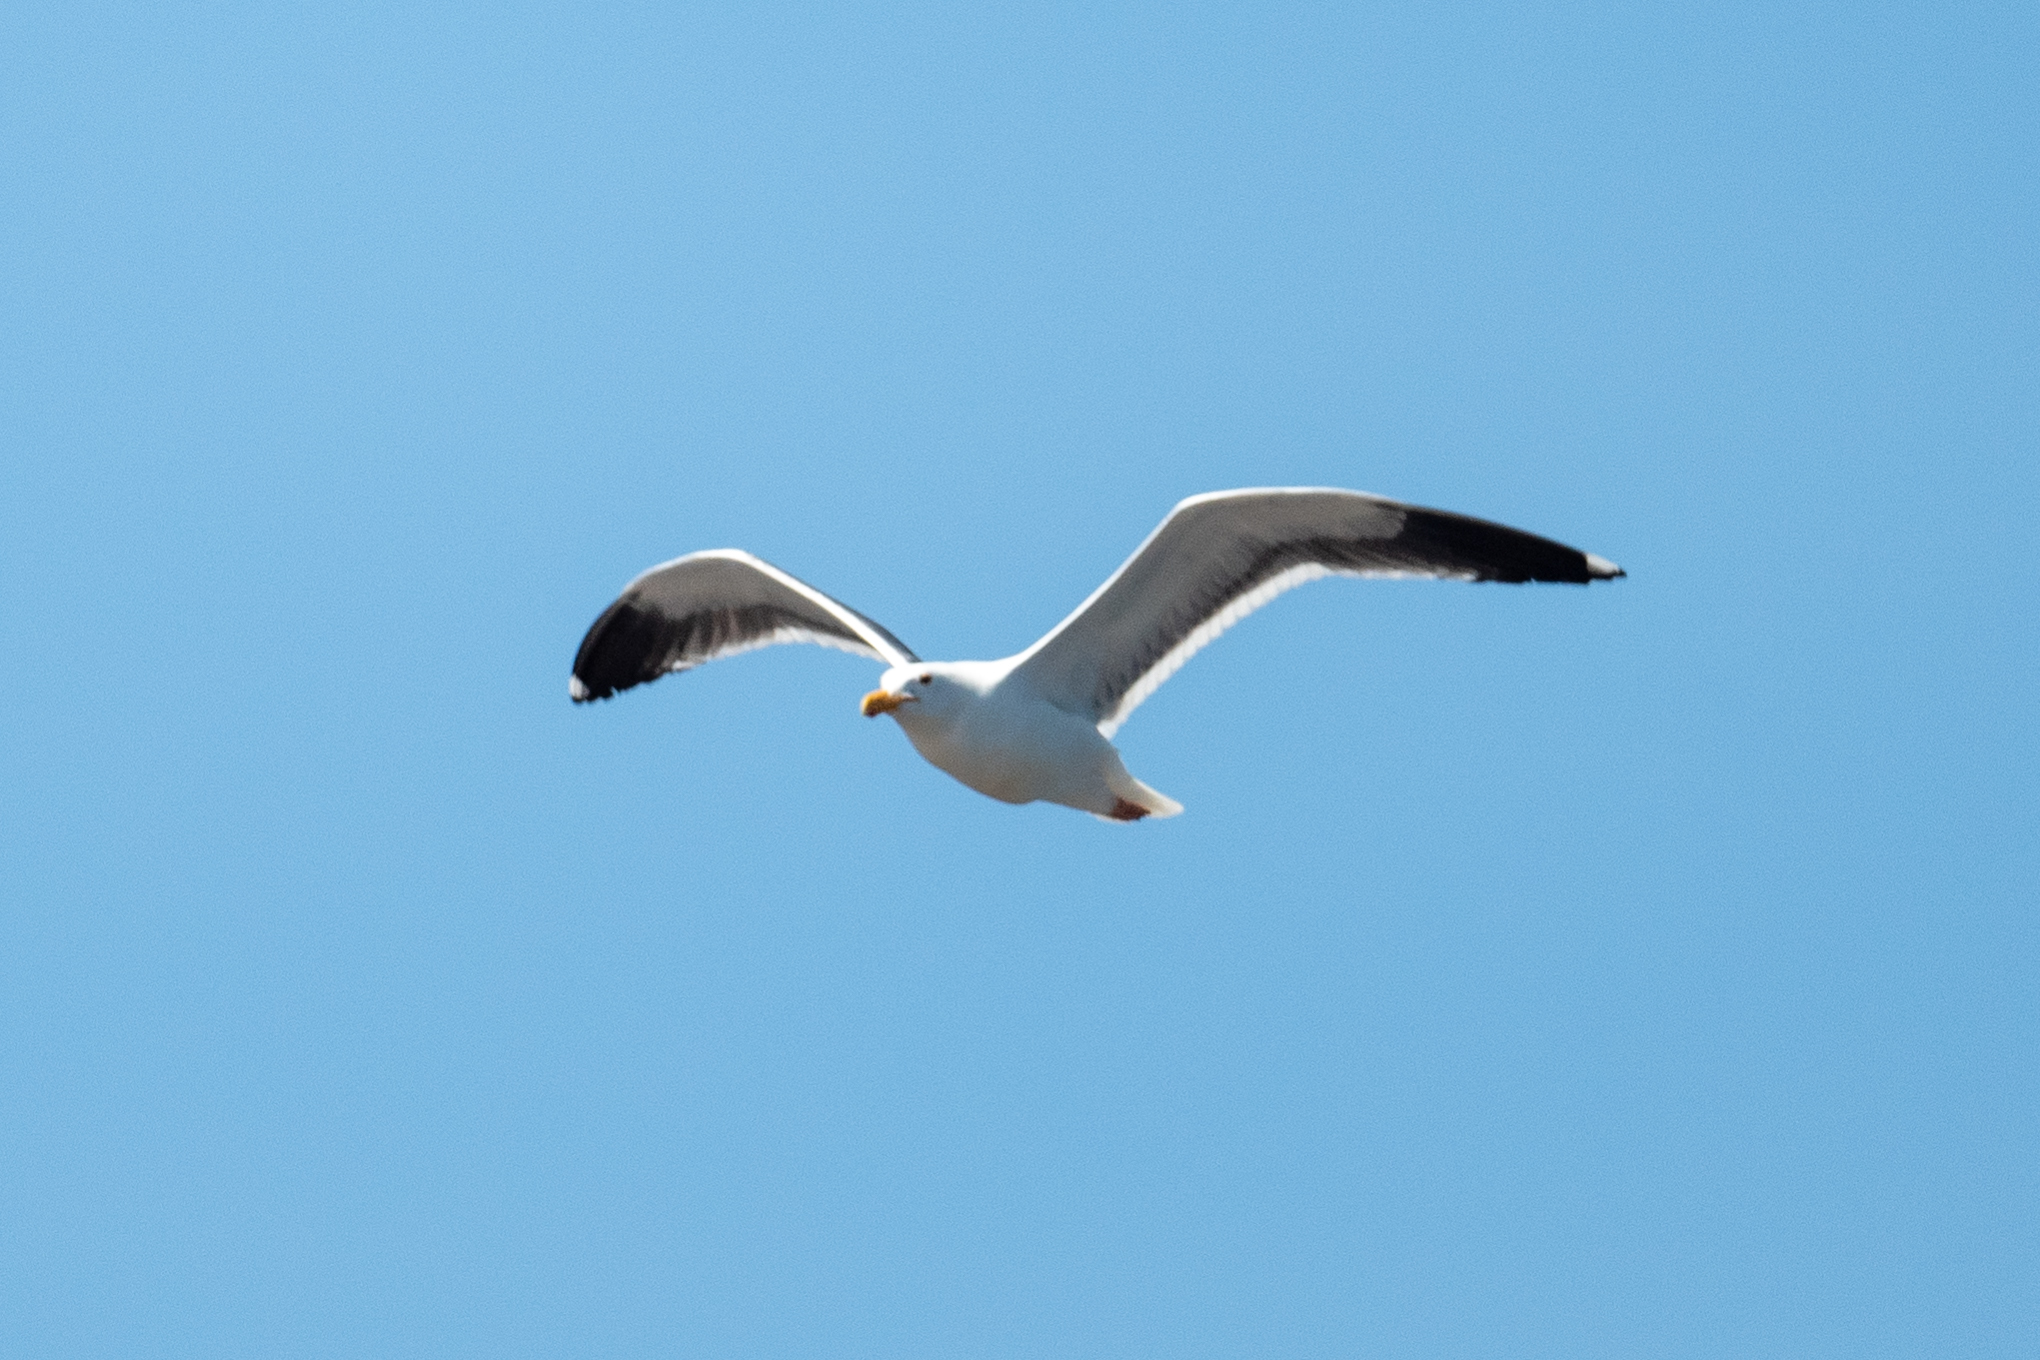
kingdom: Animalia
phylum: Chordata
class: Aves
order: Charadriiformes
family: Laridae
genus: Larus
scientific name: Larus occidentalis
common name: Western gull
